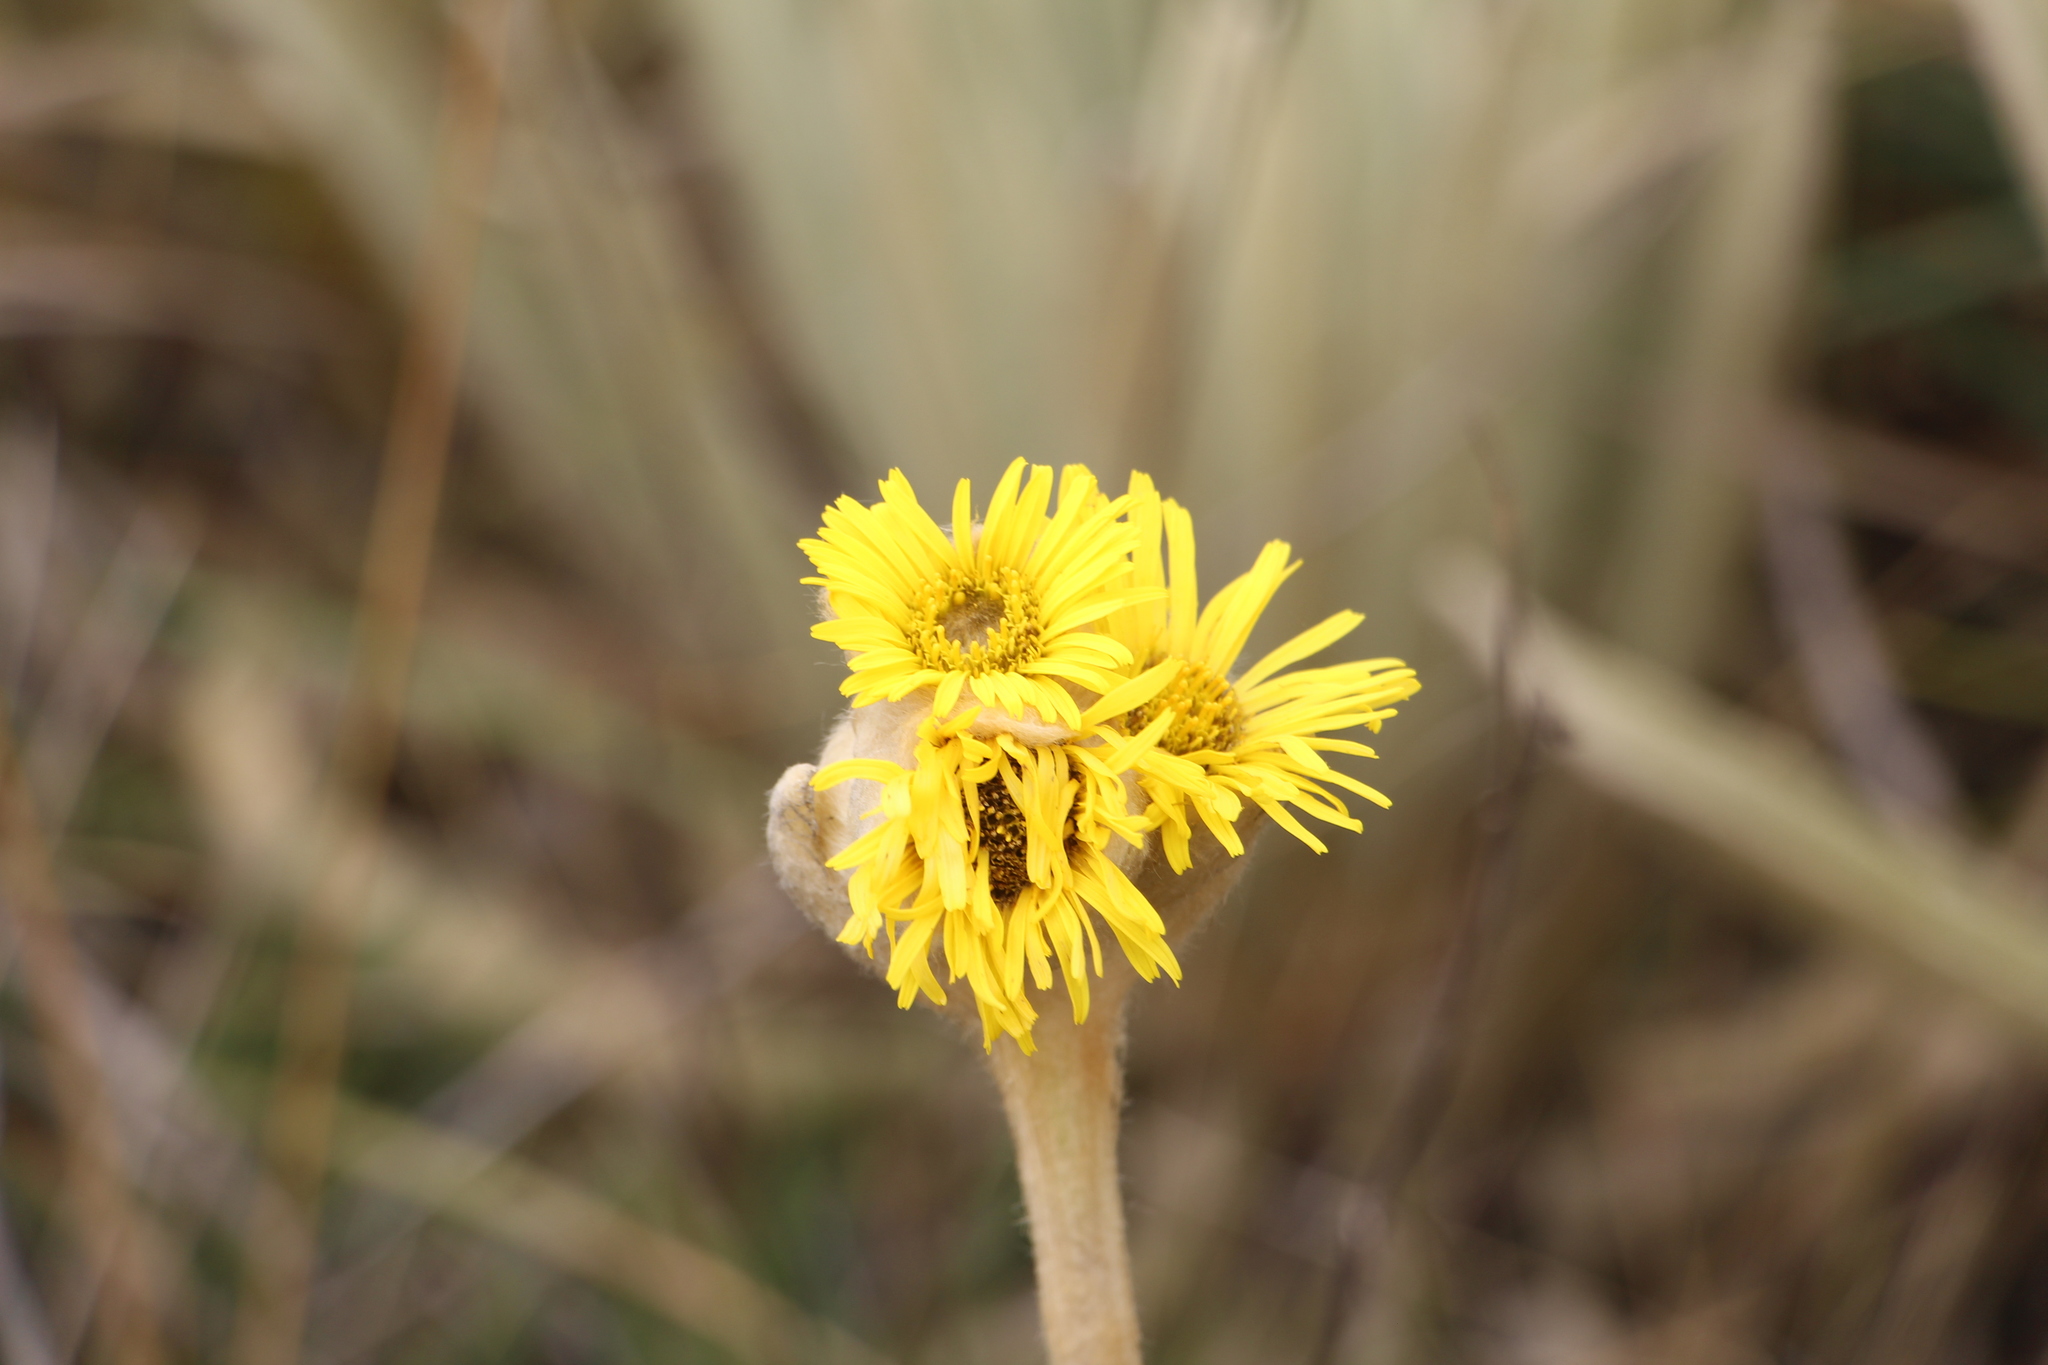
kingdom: Plantae
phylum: Tracheophyta
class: Magnoliopsida
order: Asterales
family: Asteraceae
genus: Espeletia
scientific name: Espeletia congestiflora
